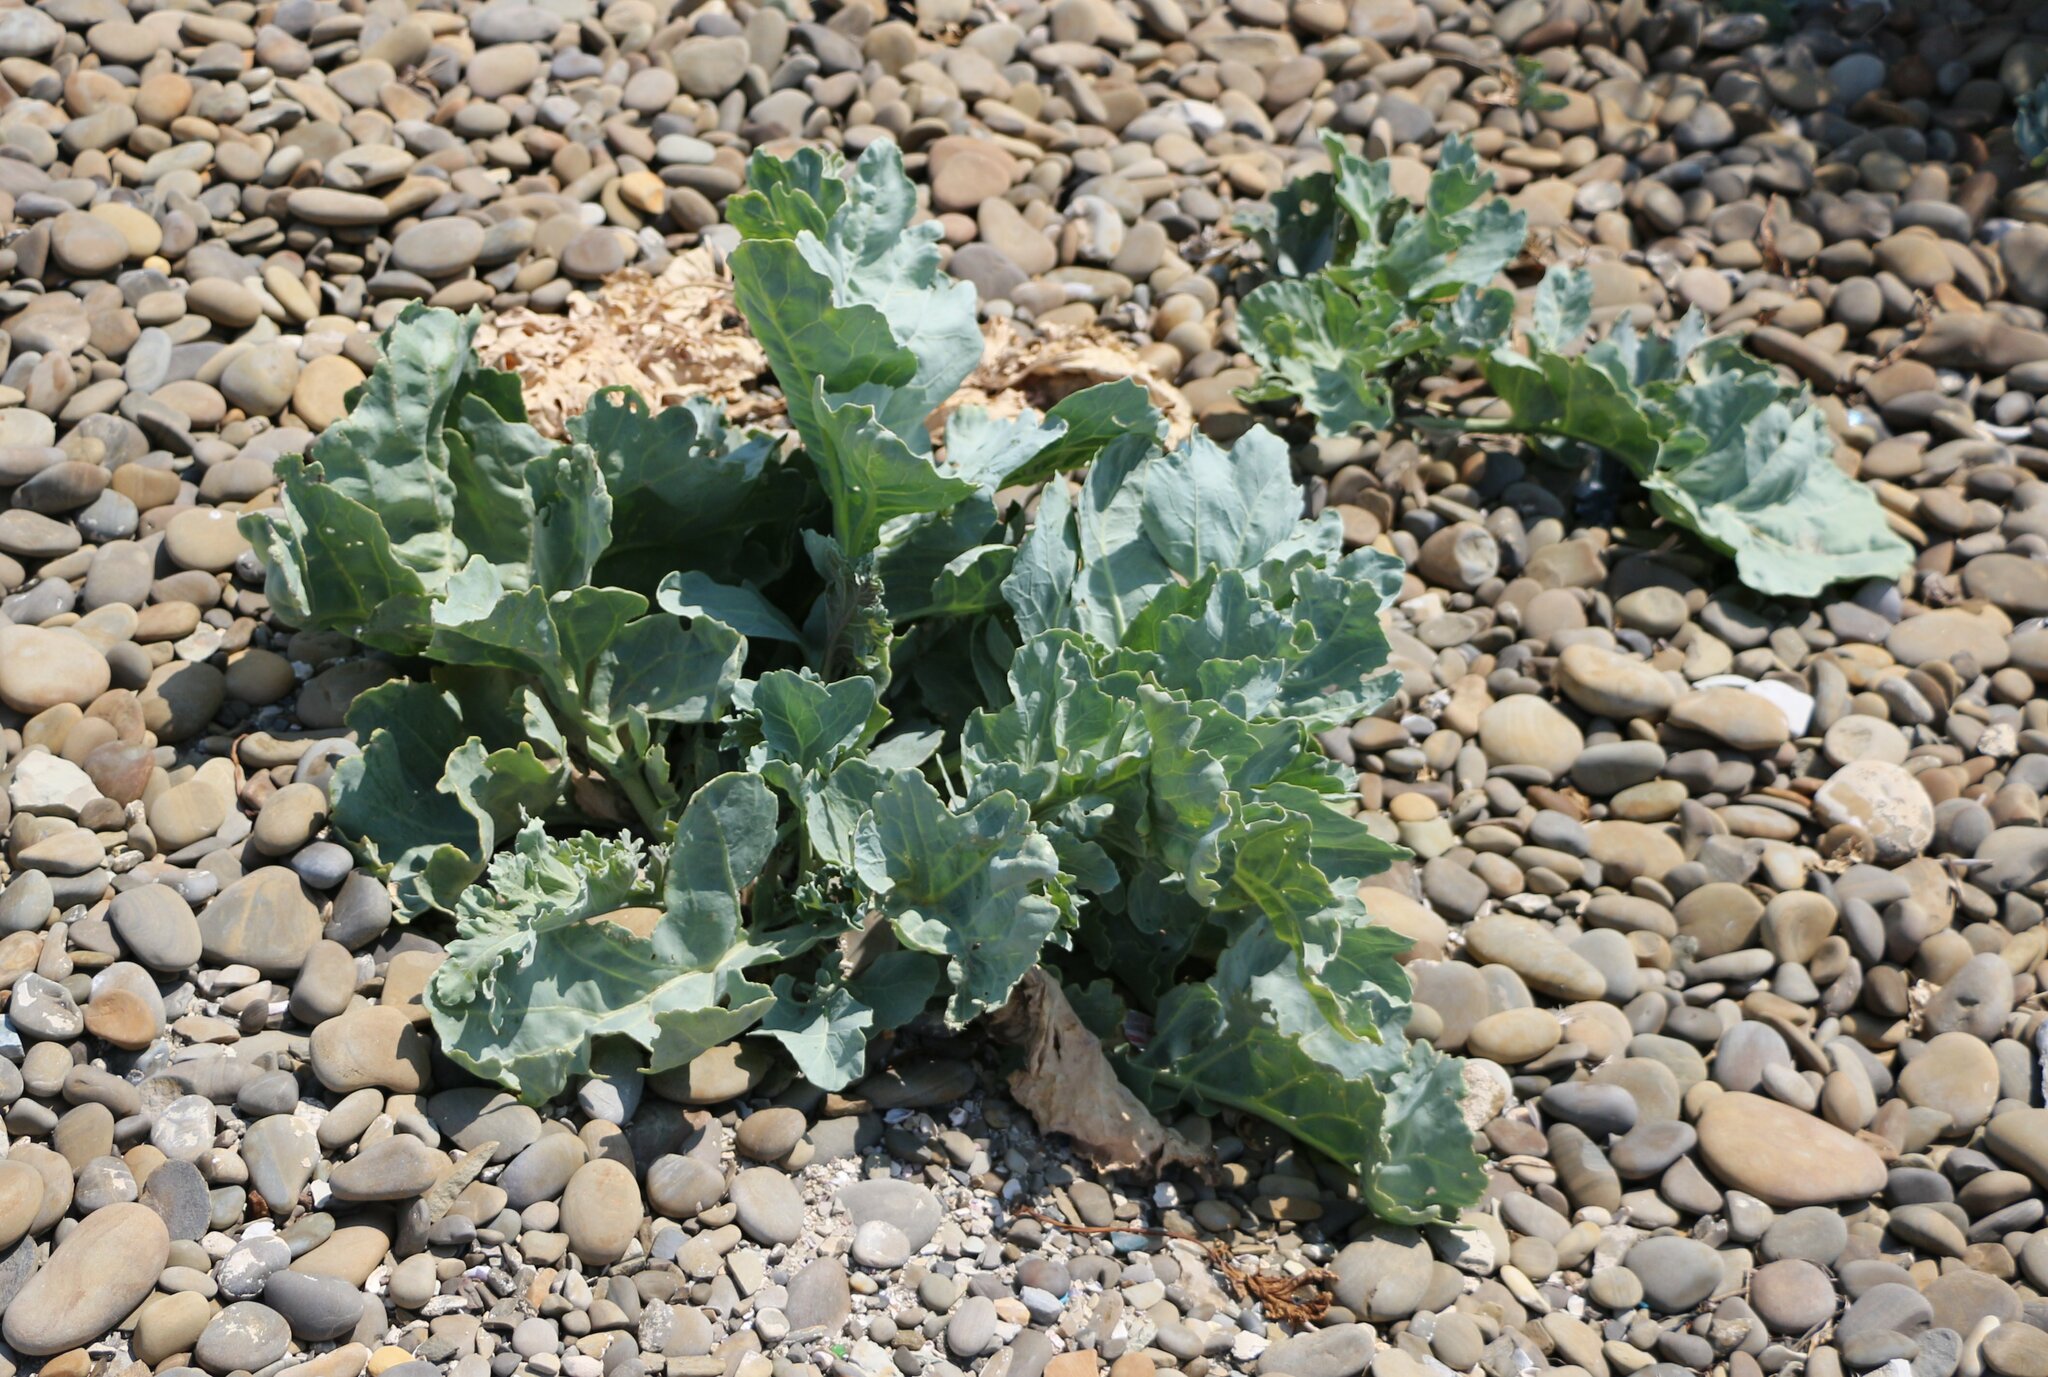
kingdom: Plantae
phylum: Tracheophyta
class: Magnoliopsida
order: Brassicales
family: Brassicaceae
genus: Crambe
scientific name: Crambe maritima
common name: Sea-kale
